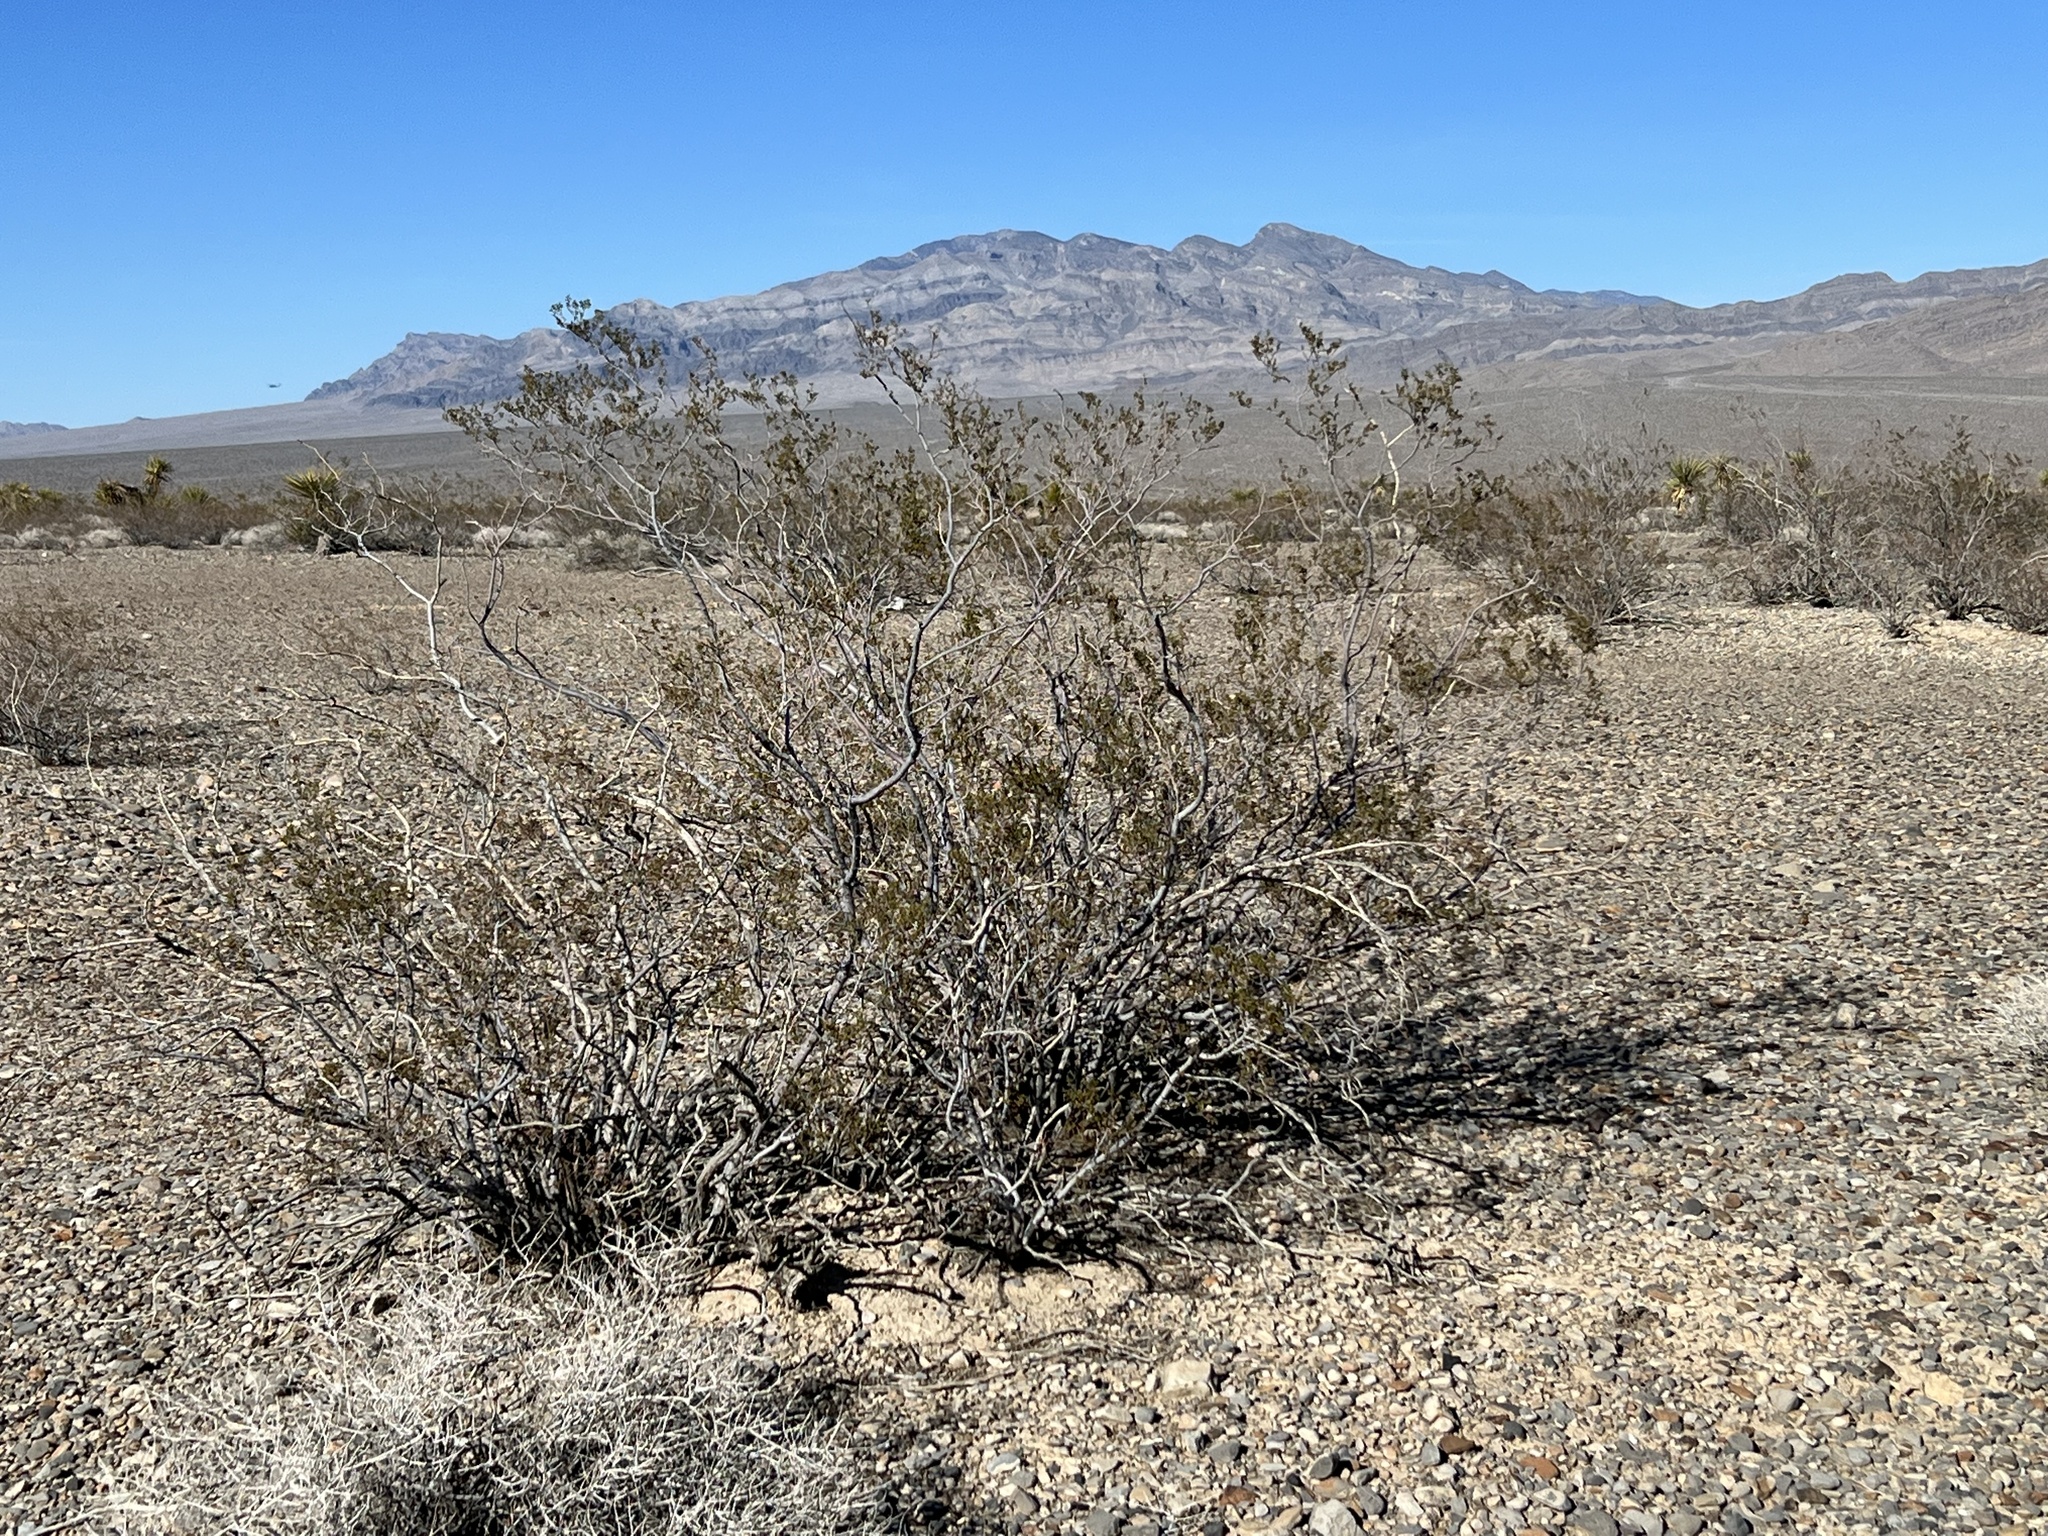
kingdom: Plantae
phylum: Tracheophyta
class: Magnoliopsida
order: Zygophyllales
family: Zygophyllaceae
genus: Larrea
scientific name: Larrea tridentata
